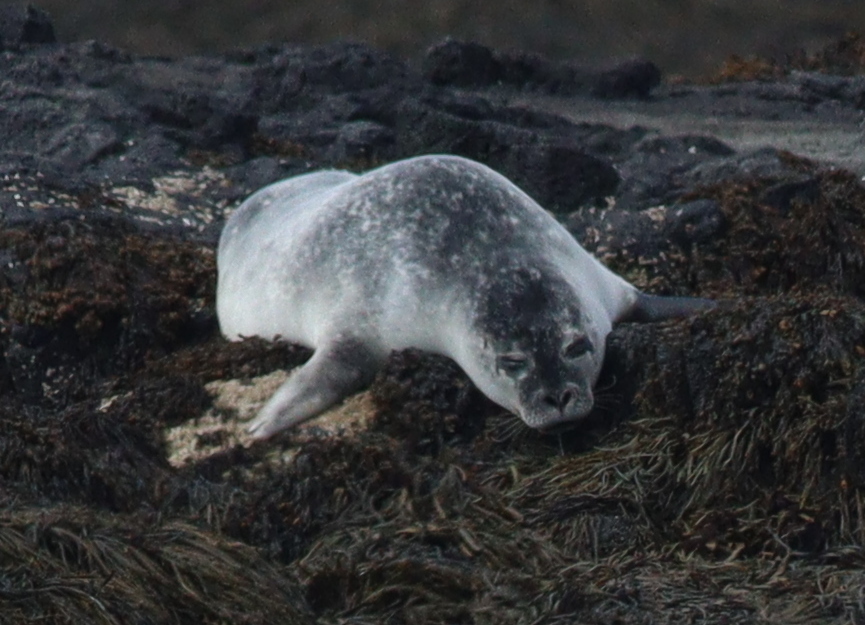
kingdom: Animalia
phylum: Chordata
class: Mammalia
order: Carnivora
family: Phocidae
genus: Phoca
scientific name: Phoca vitulina
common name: Harbor seal
